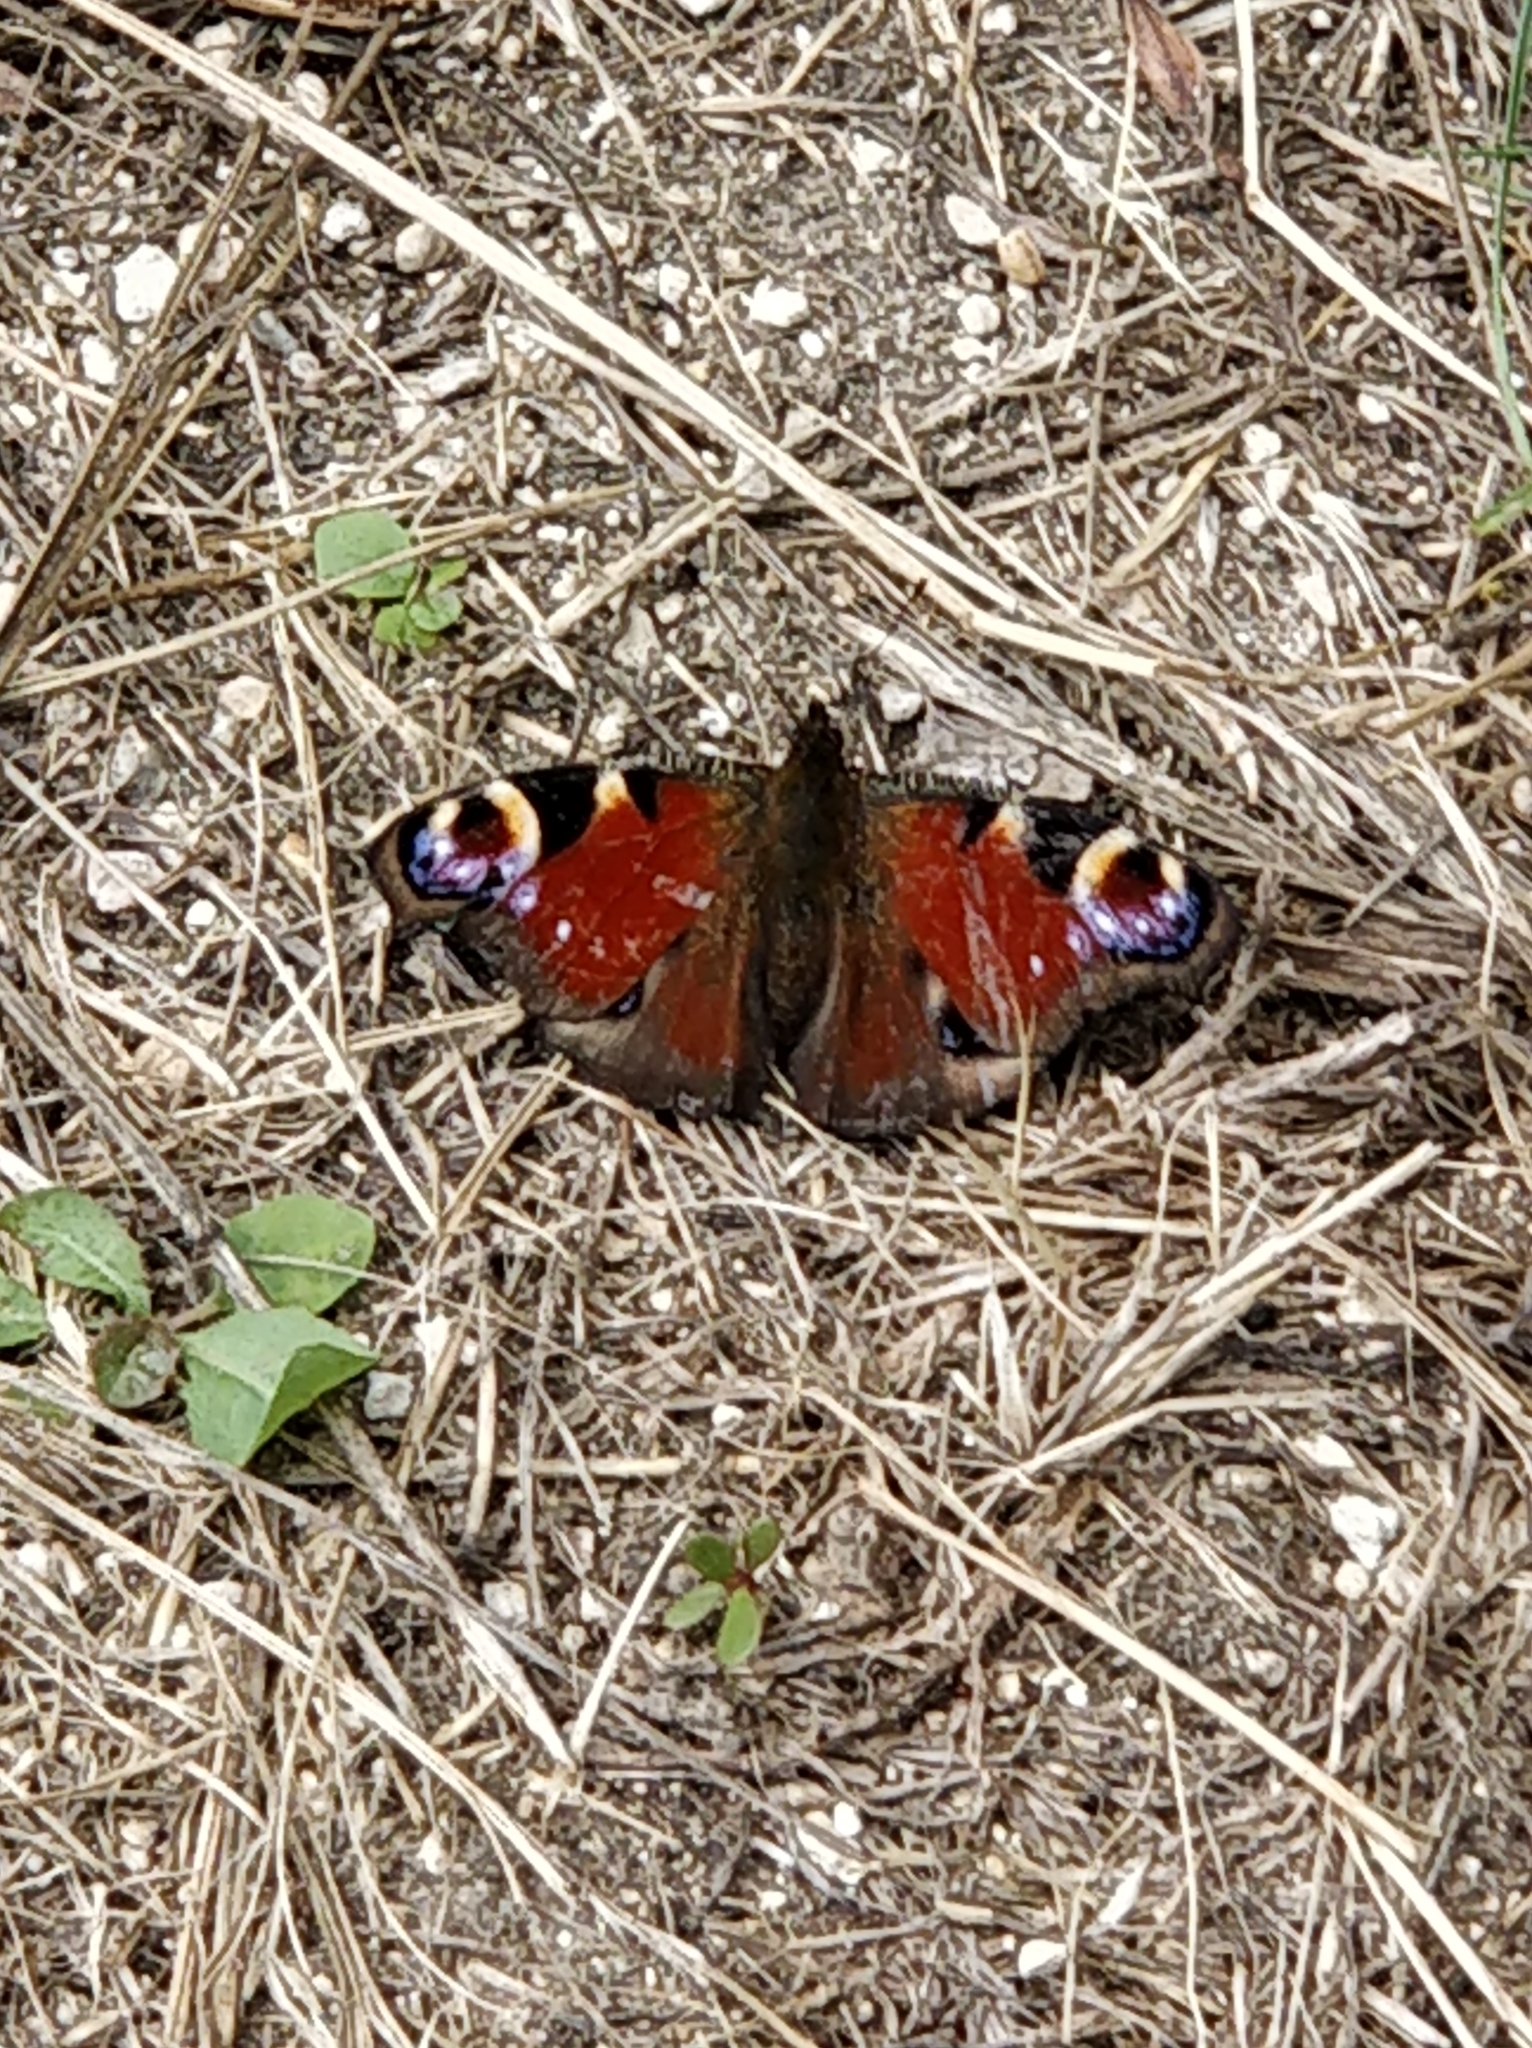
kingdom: Animalia
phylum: Arthropoda
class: Insecta
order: Lepidoptera
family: Nymphalidae
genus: Aglais
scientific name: Aglais io
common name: Peacock
